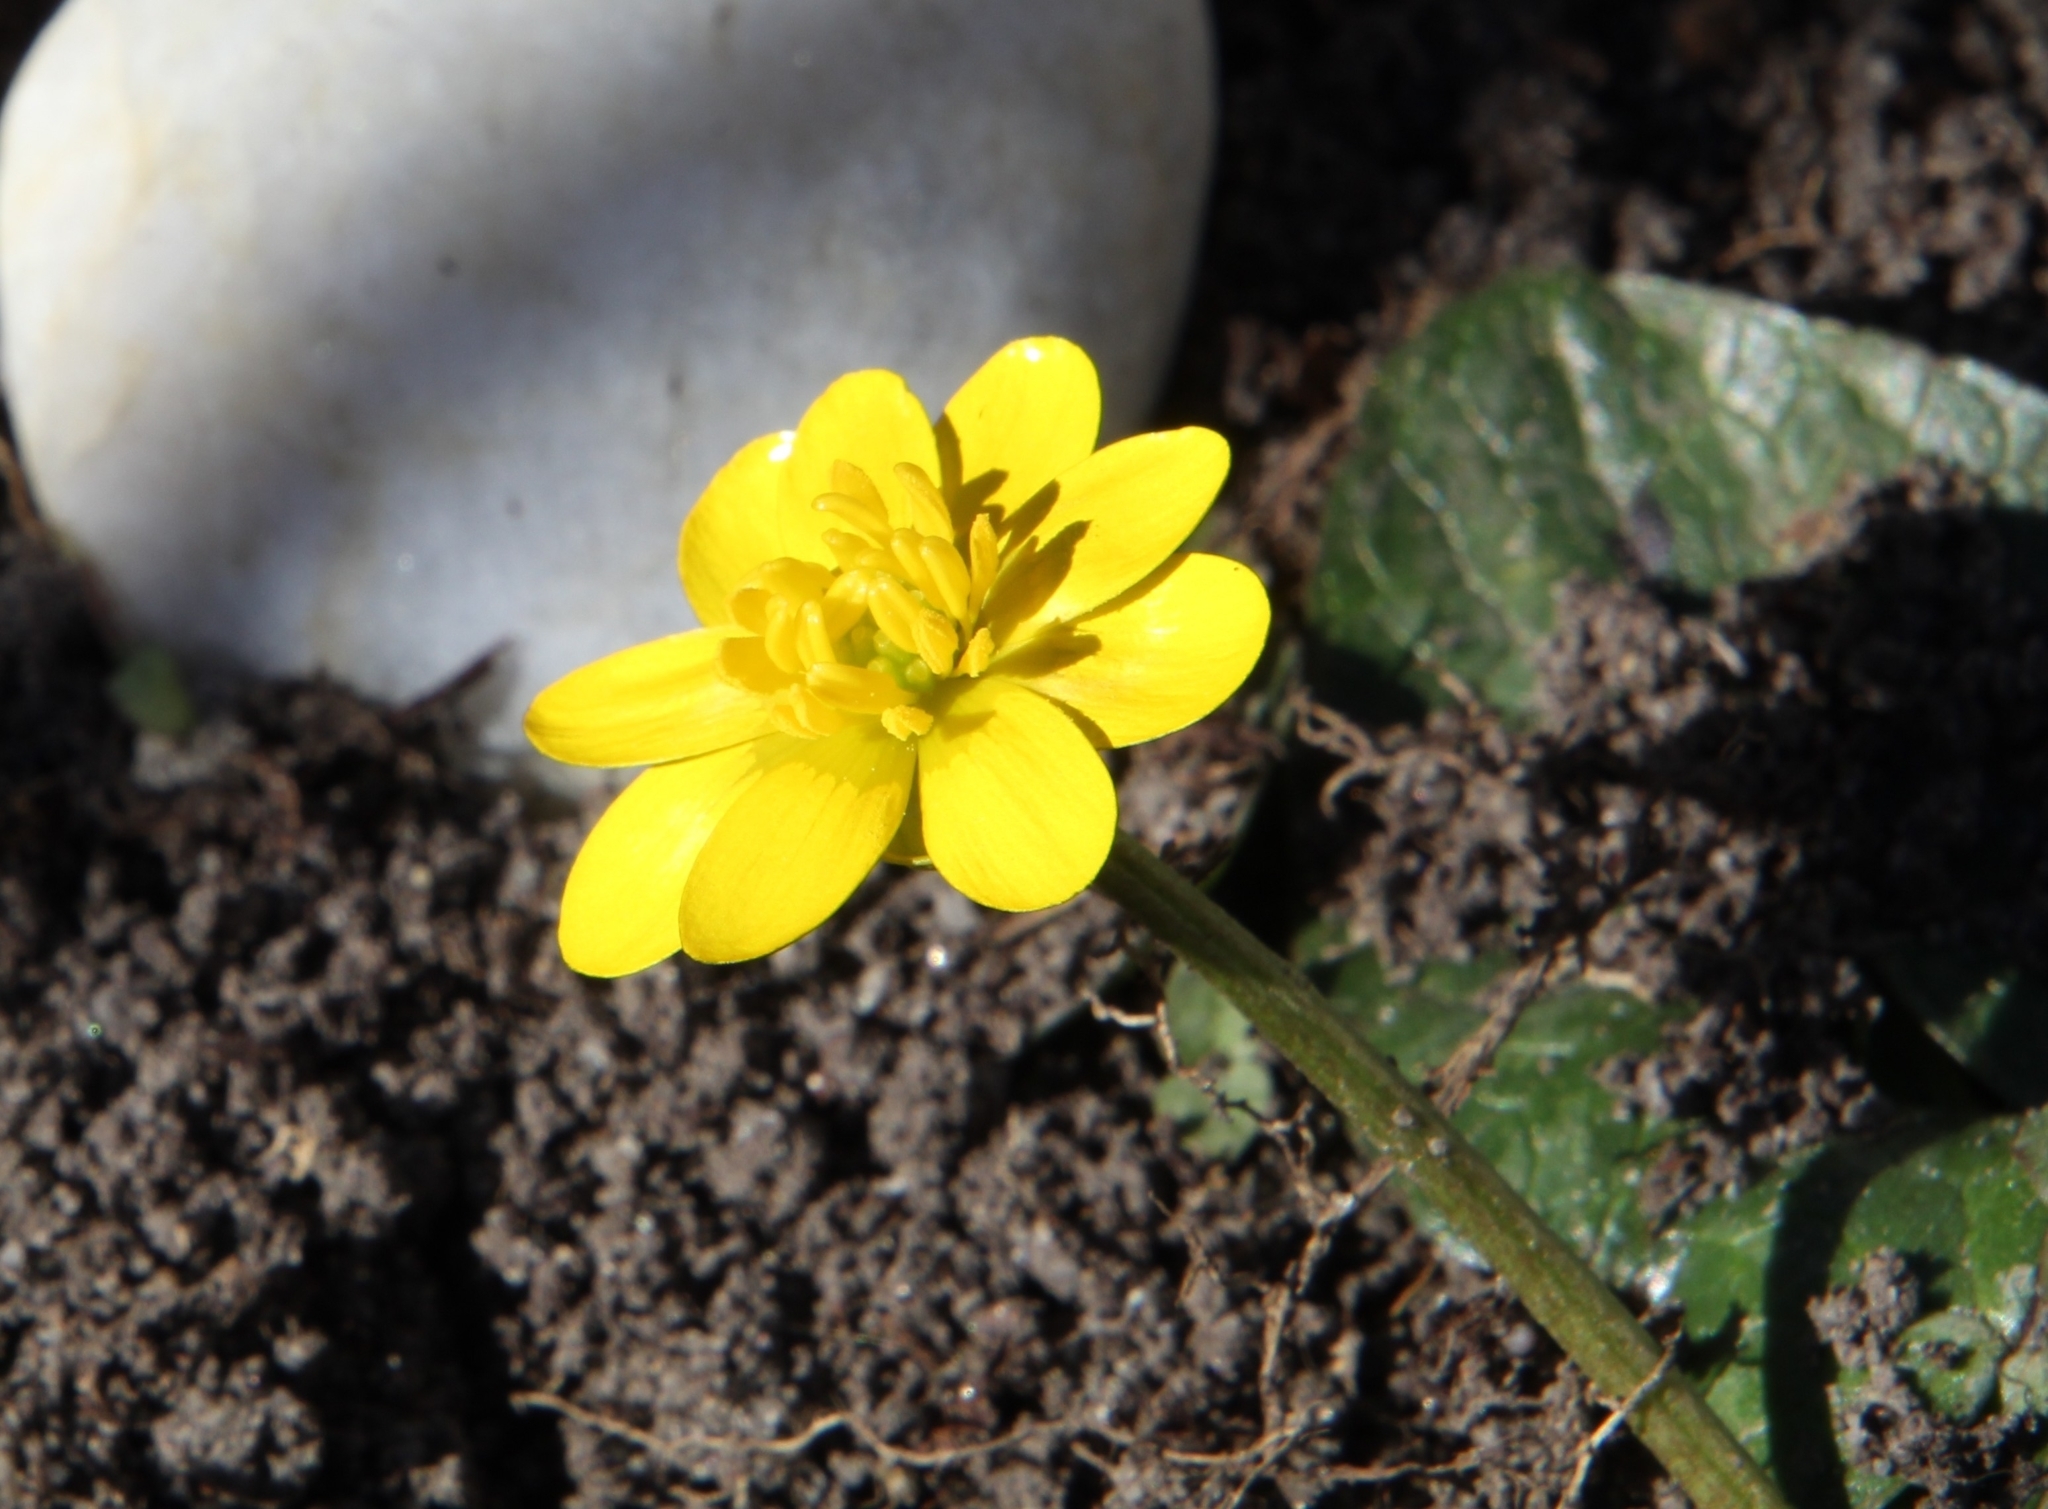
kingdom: Plantae
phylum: Tracheophyta
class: Magnoliopsida
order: Ranunculales
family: Ranunculaceae
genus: Ficaria
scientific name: Ficaria verna
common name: Lesser celandine
